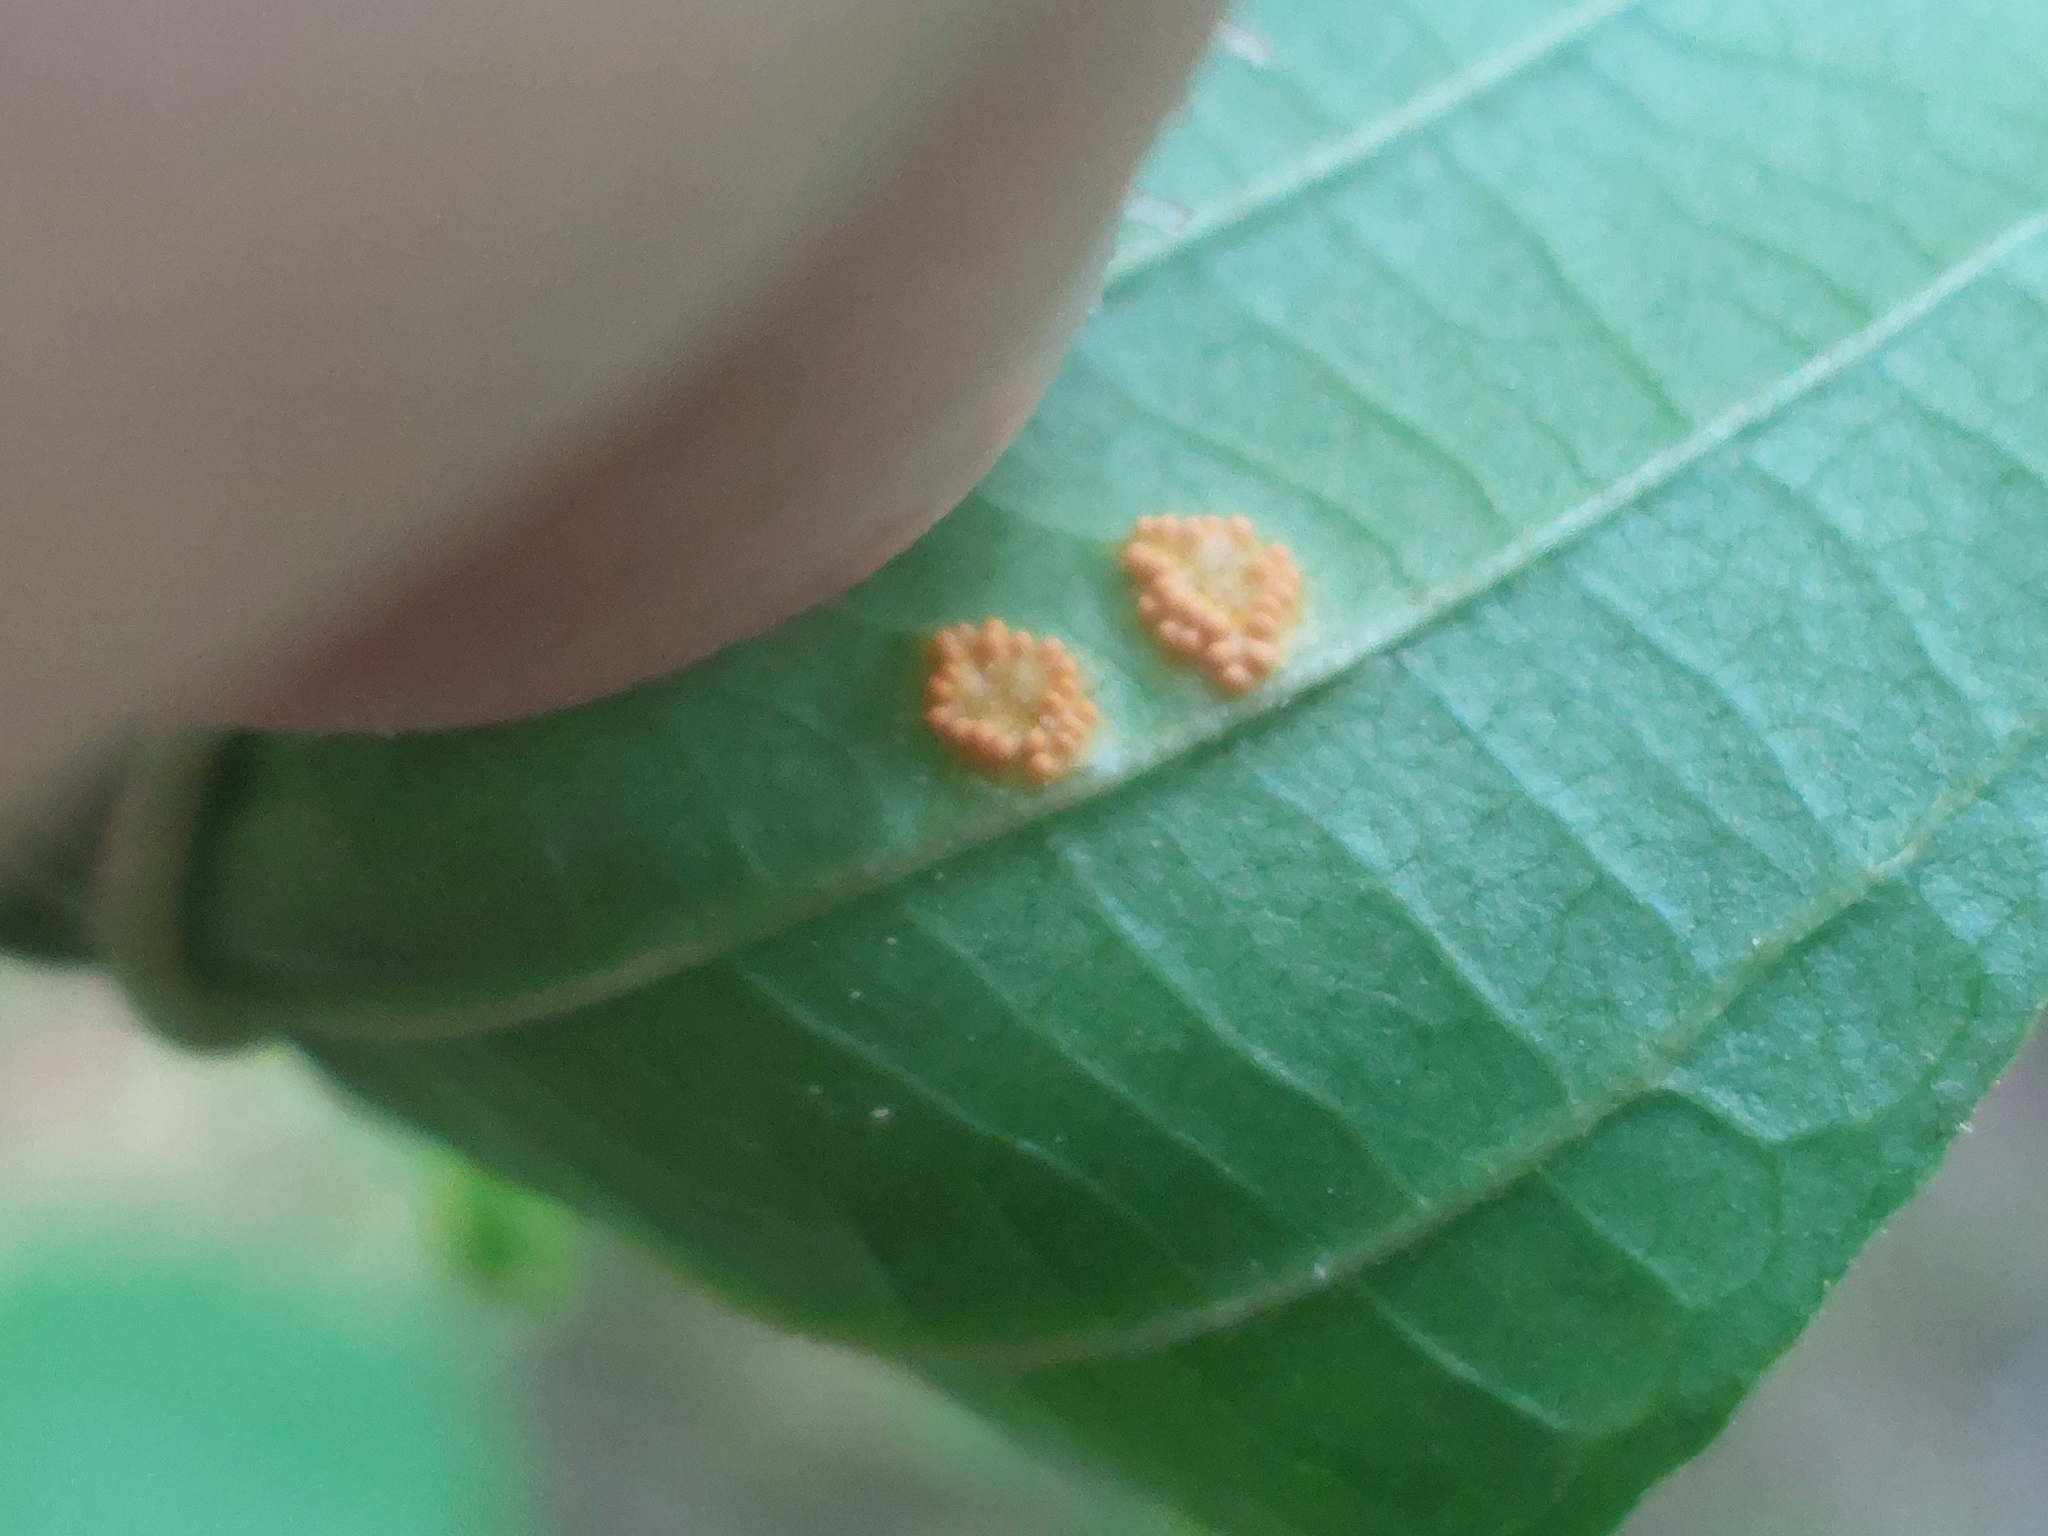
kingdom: Fungi
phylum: Basidiomycota
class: Pucciniomycetes
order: Pucciniales
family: Pucciniaceae
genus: Puccinia
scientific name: Puccinia coronata
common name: Crown rust
